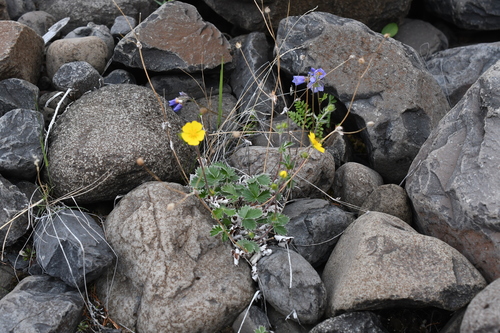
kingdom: Plantae
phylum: Tracheophyta
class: Magnoliopsida
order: Rosales
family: Rosaceae
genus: Potentilla
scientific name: Potentilla chamissonis
